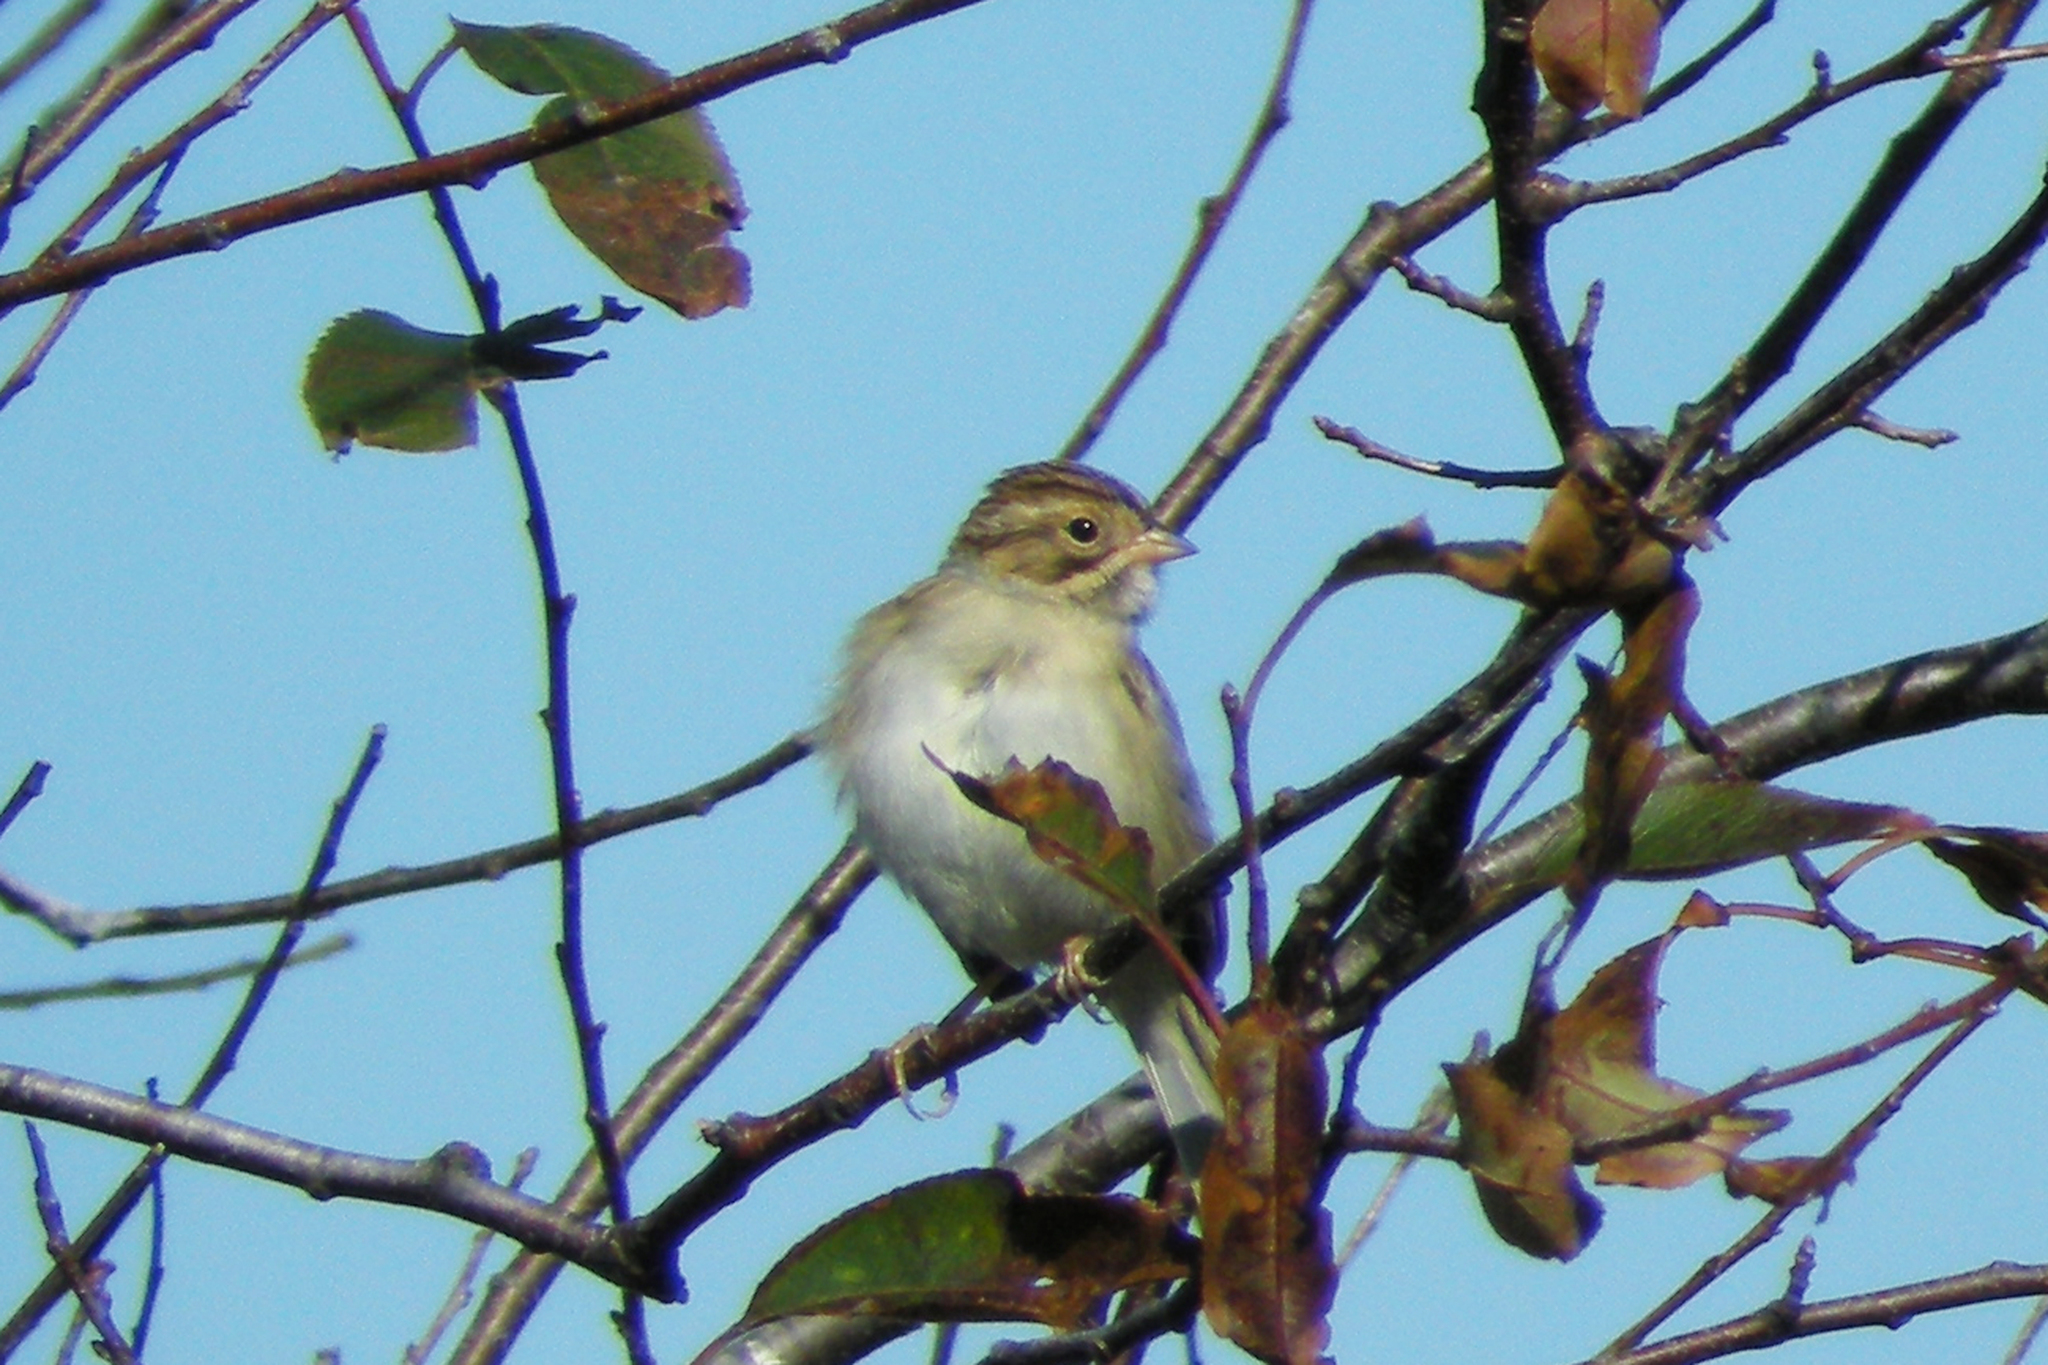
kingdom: Animalia
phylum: Chordata
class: Aves
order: Passeriformes
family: Passerellidae
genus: Spizella
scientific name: Spizella pallida
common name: Clay-colored sparrow
